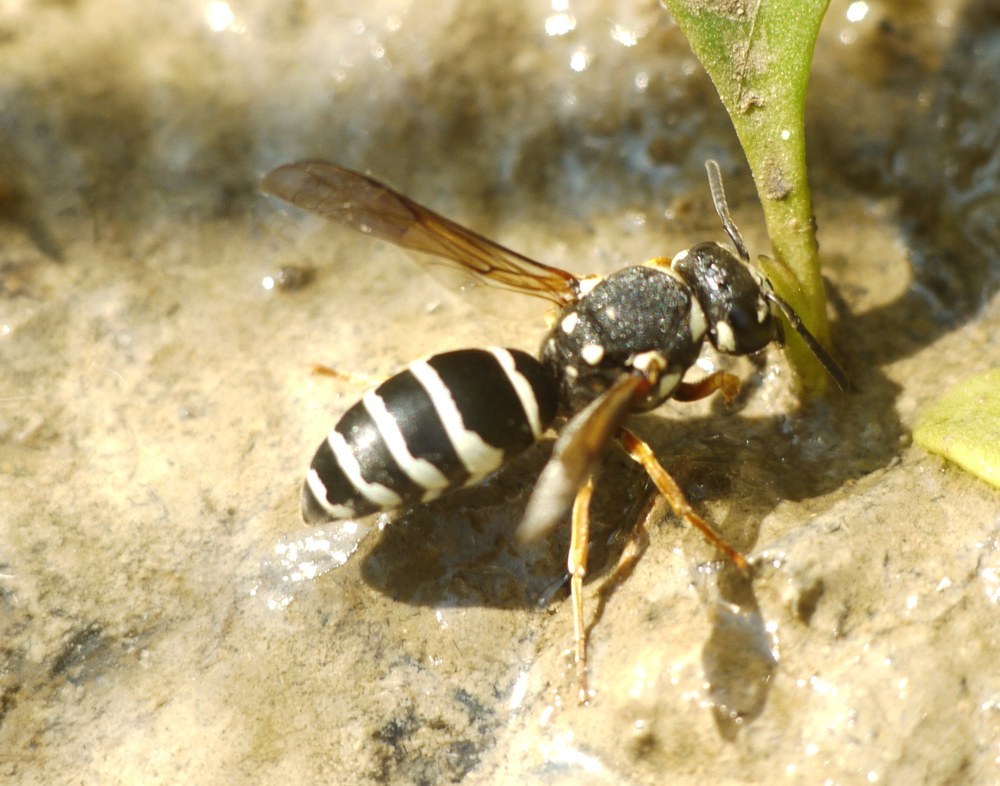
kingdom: Animalia
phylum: Arthropoda
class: Insecta
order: Hymenoptera
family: Eumenidae
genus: Hemipterochilus
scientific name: Hemipterochilus bembeciformis
